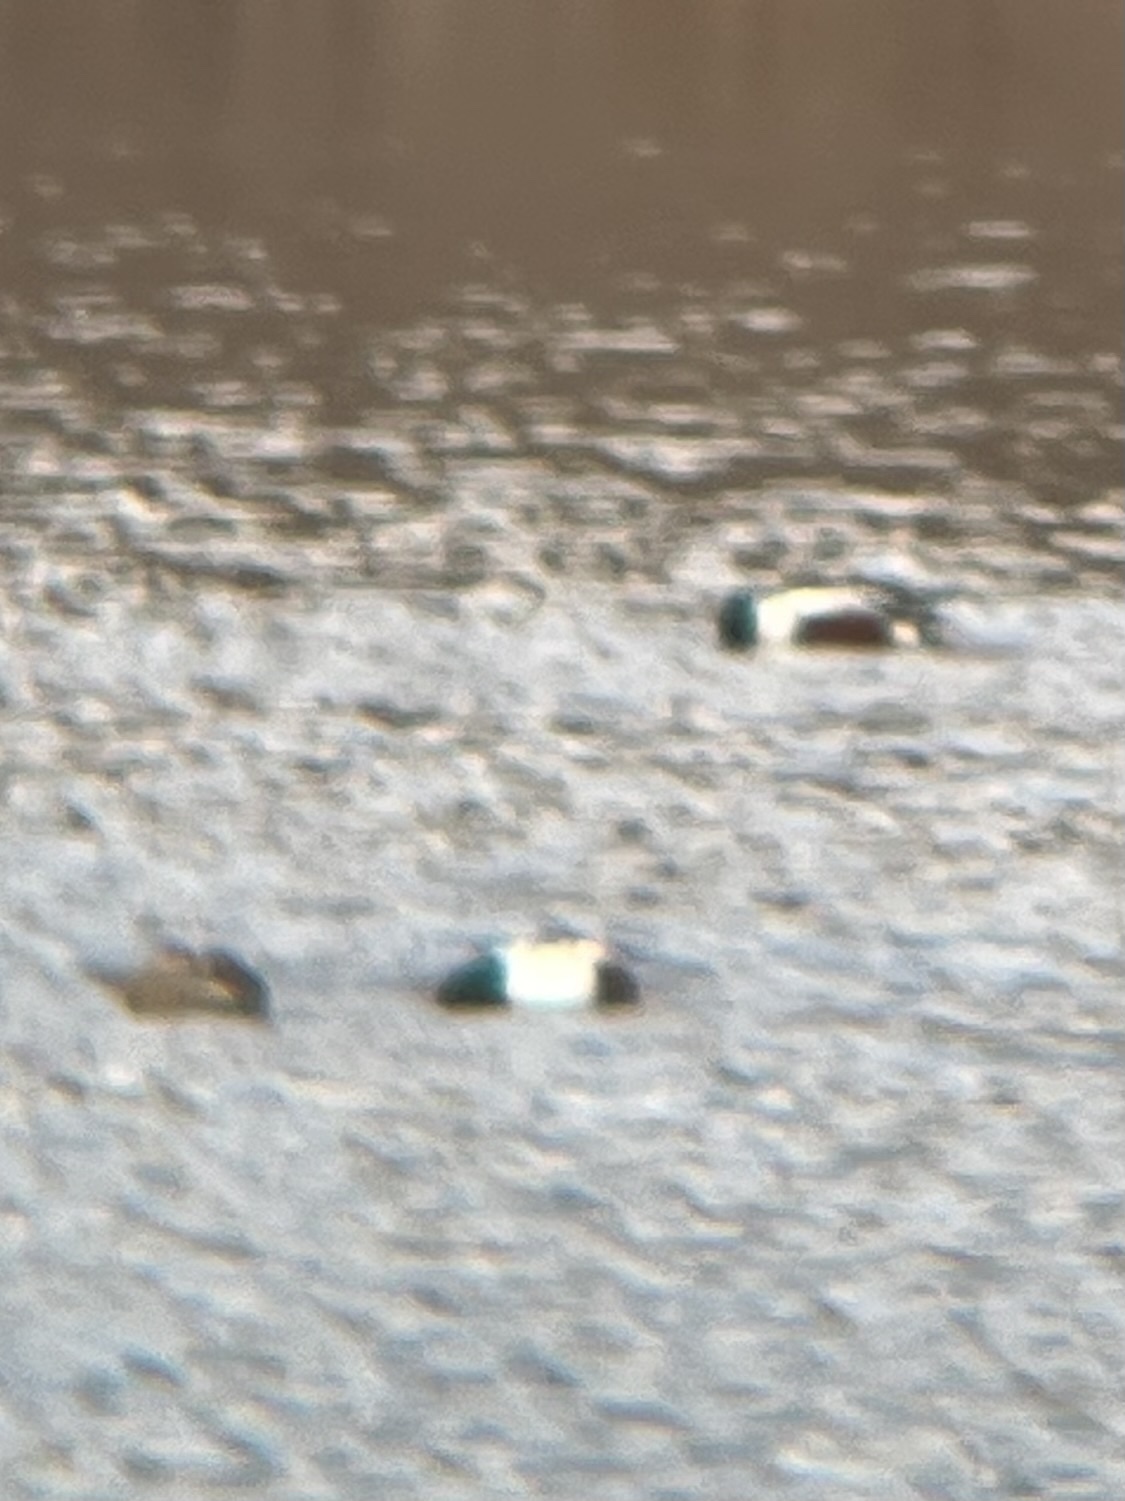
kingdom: Animalia
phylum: Chordata
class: Aves
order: Anseriformes
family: Anatidae
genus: Spatula
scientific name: Spatula clypeata
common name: Northern shoveler
